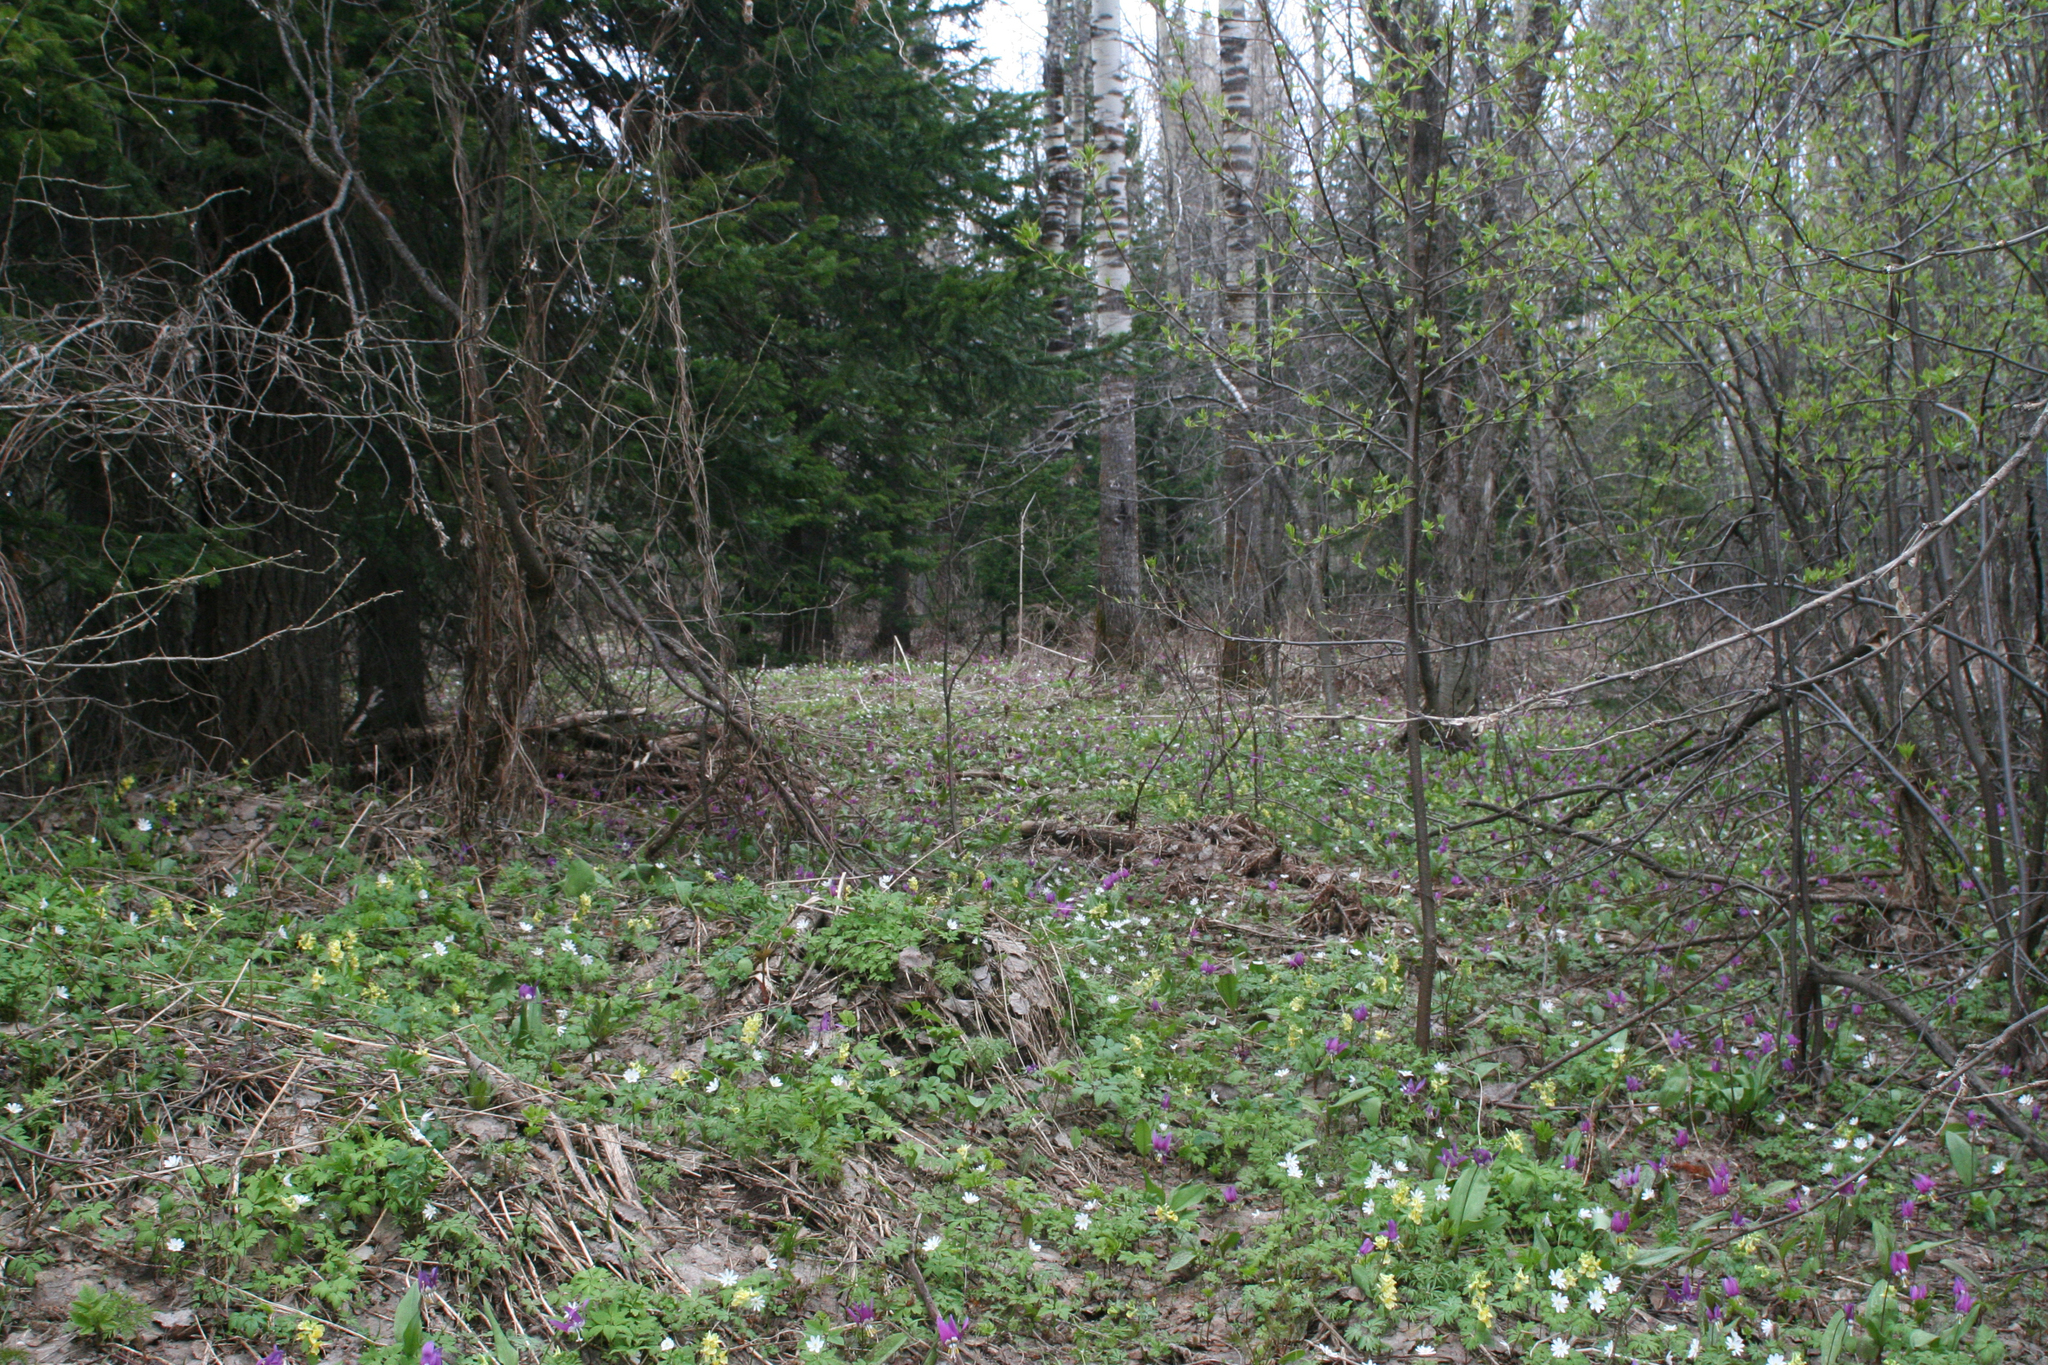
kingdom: Plantae
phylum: Tracheophyta
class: Magnoliopsida
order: Ranunculales
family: Ranunculaceae
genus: Anemone
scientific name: Anemone altaica
